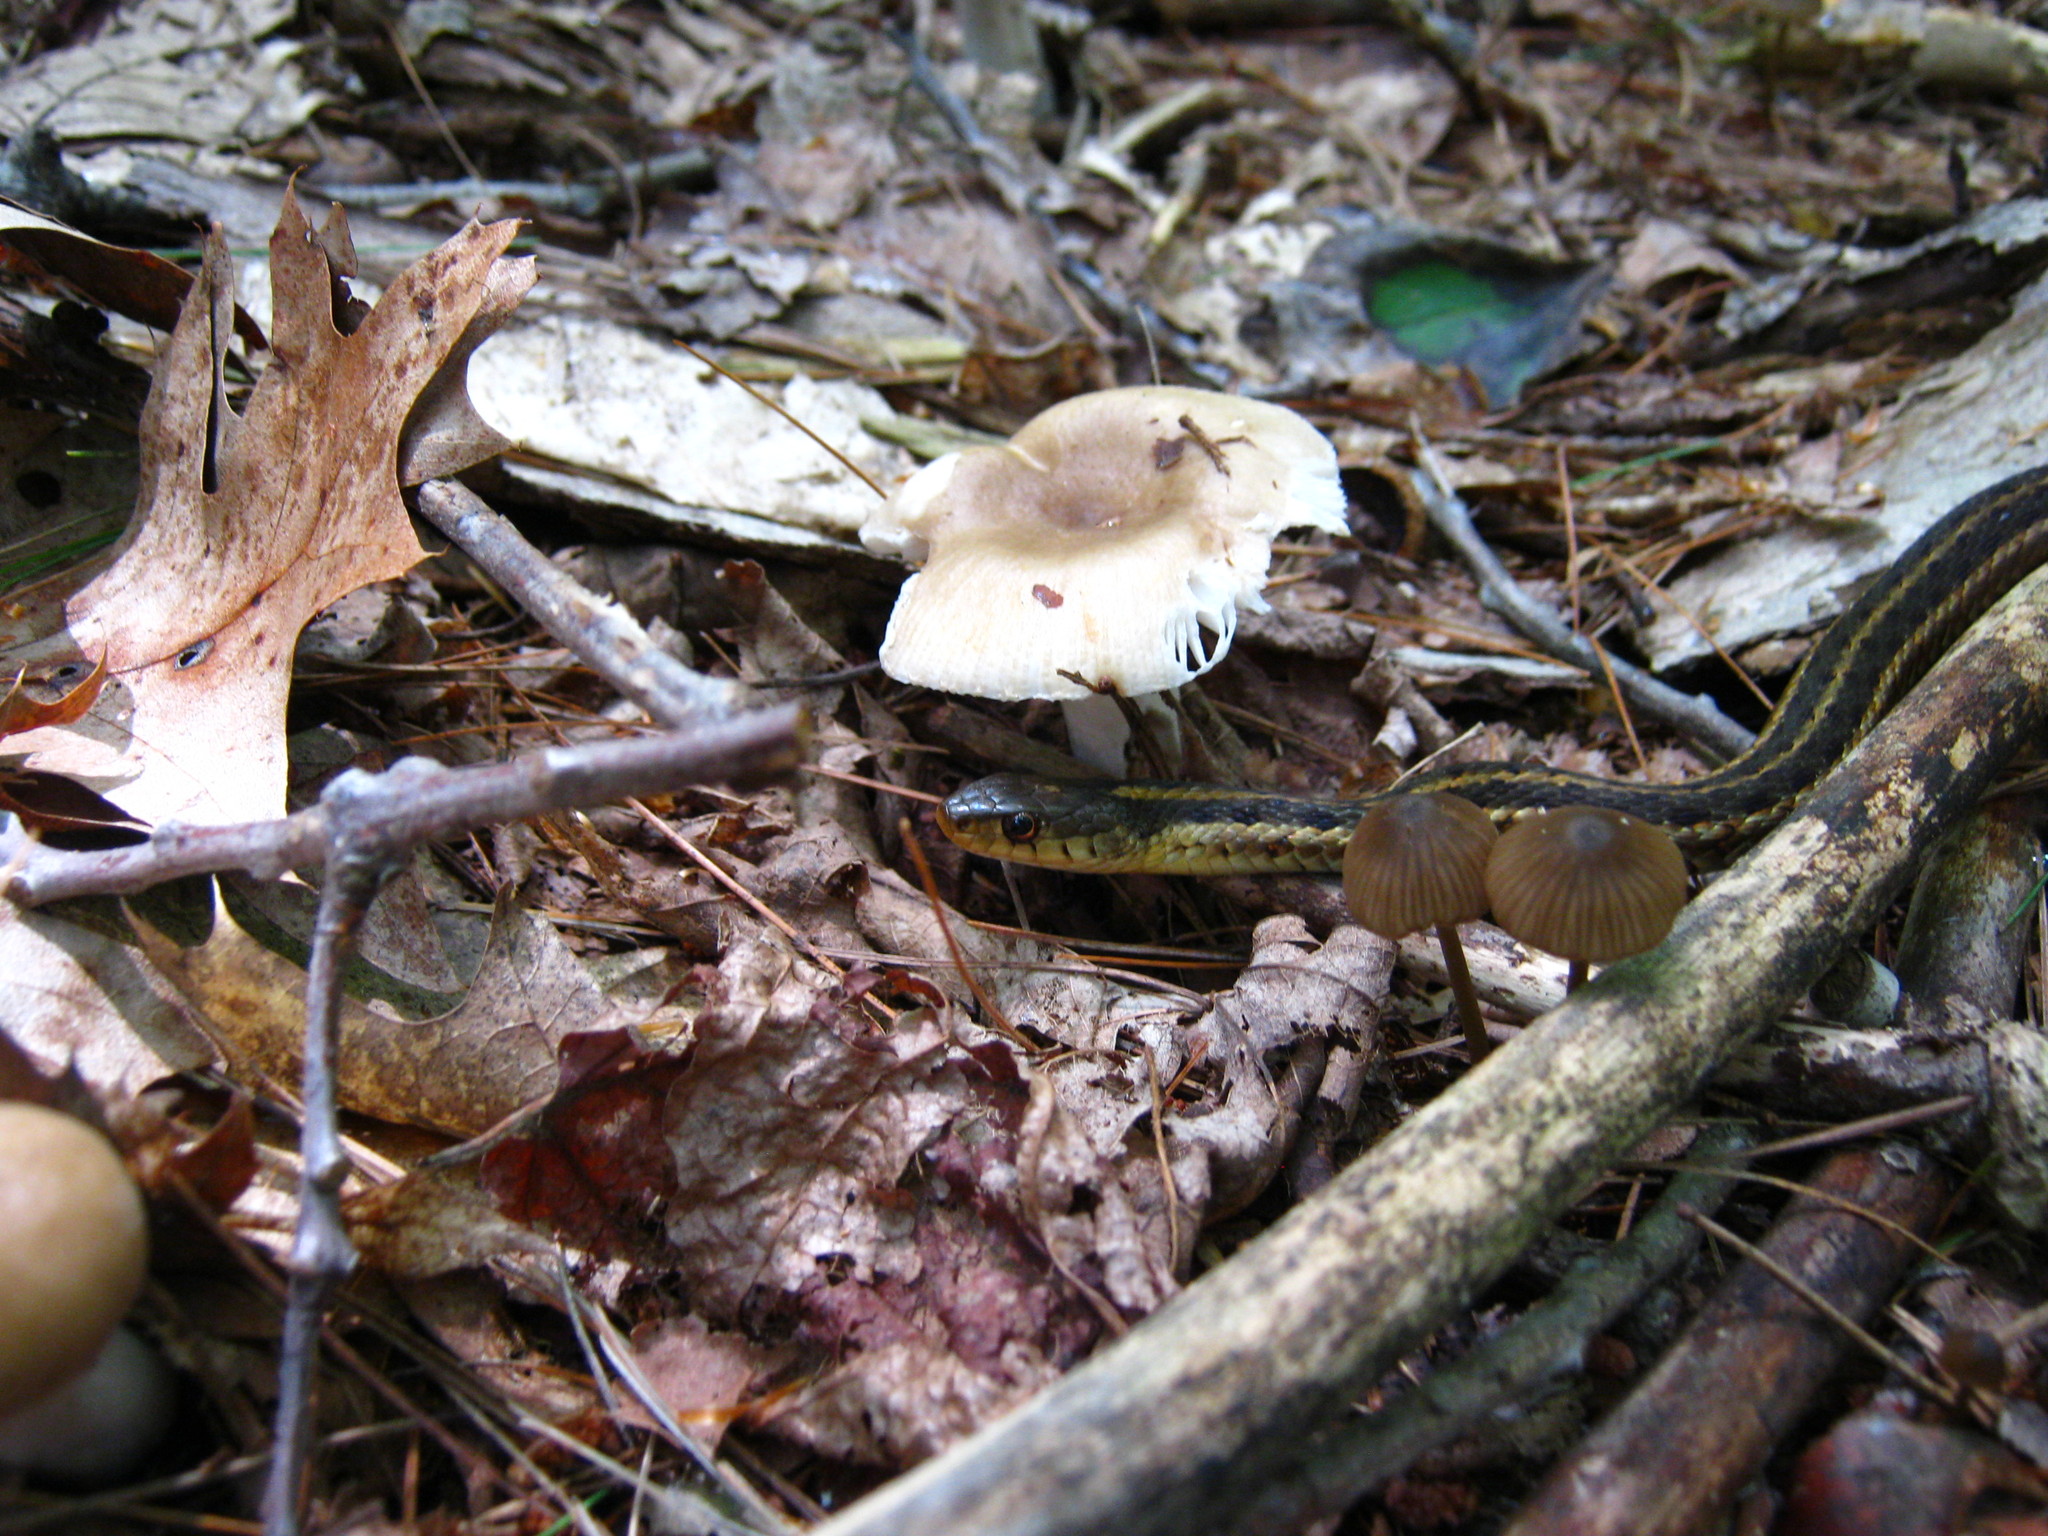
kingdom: Animalia
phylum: Chordata
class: Squamata
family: Colubridae
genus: Thamnophis
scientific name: Thamnophis sirtalis
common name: Common garter snake
